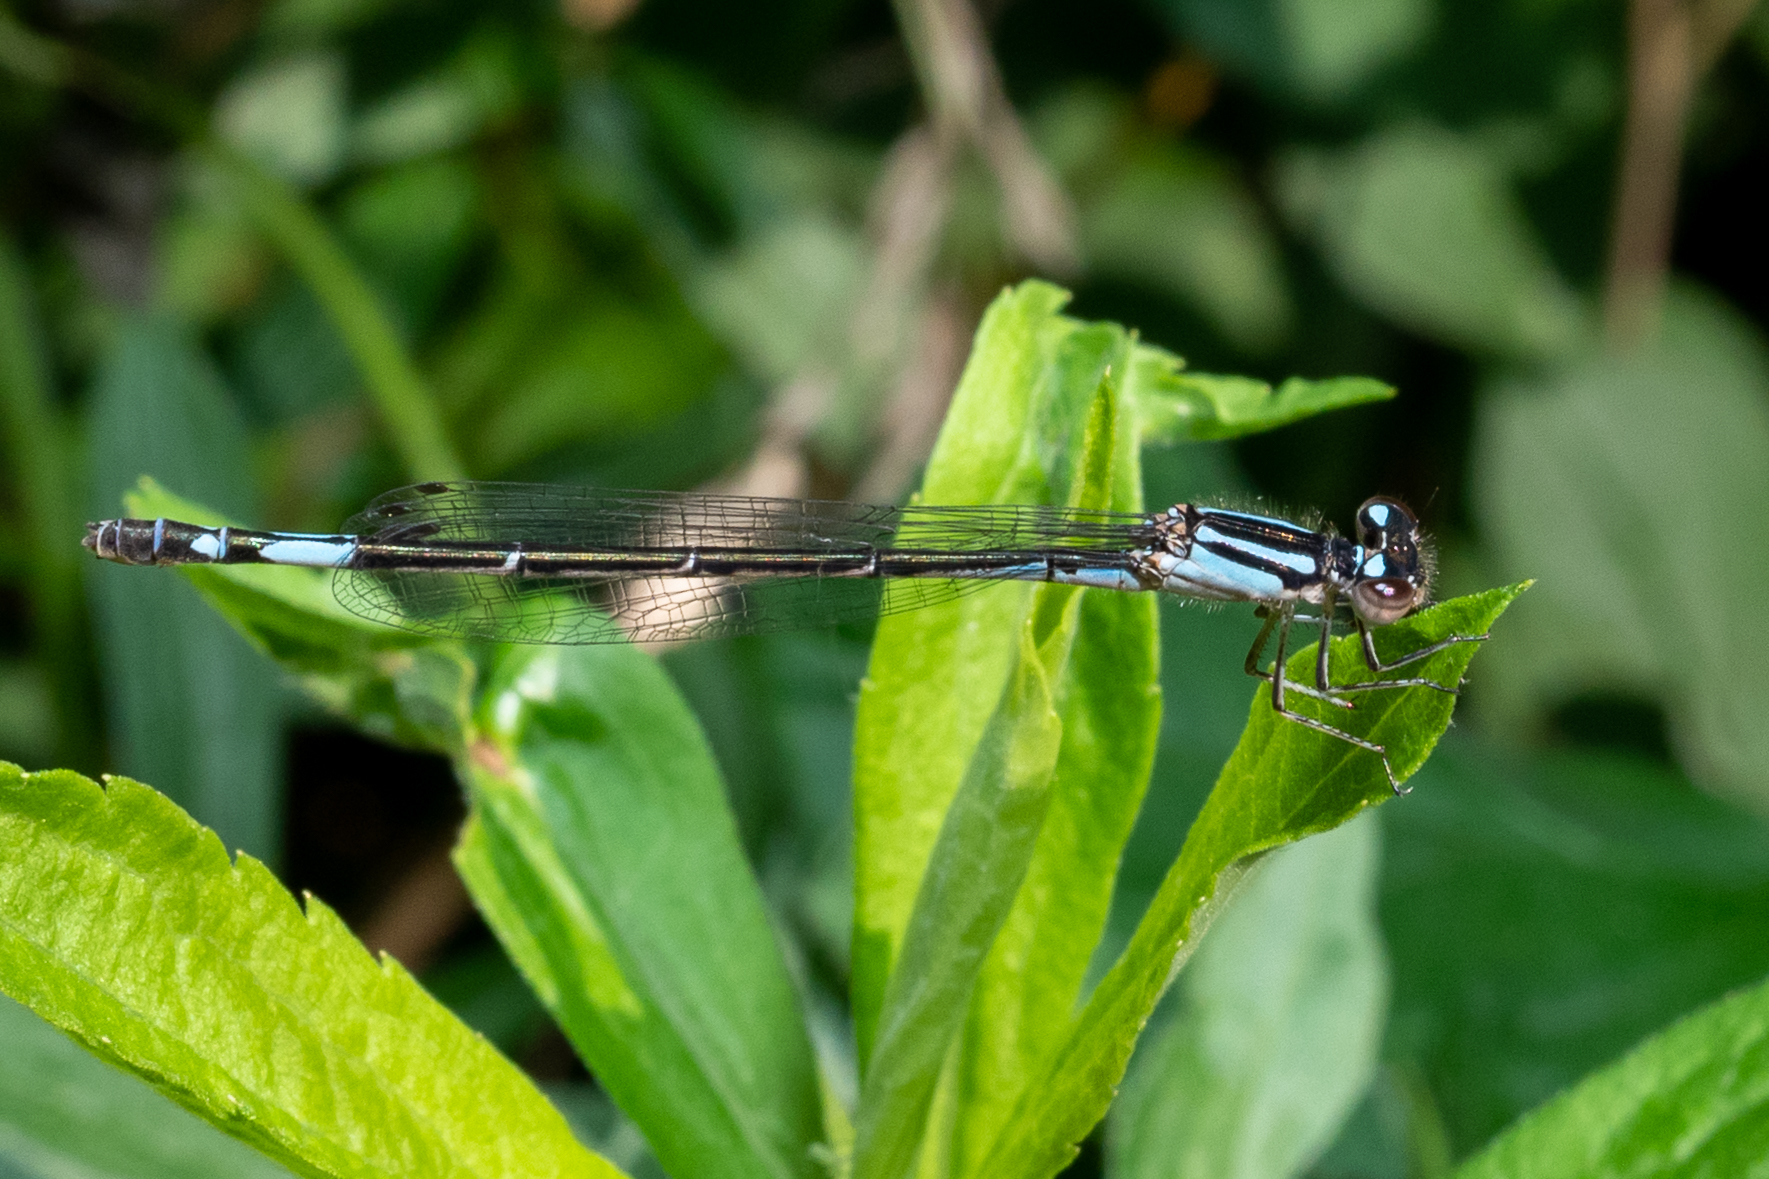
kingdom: Animalia
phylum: Arthropoda
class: Insecta
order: Odonata
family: Coenagrionidae
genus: Enallagma
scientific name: Enallagma aspersum
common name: Azure bluet
